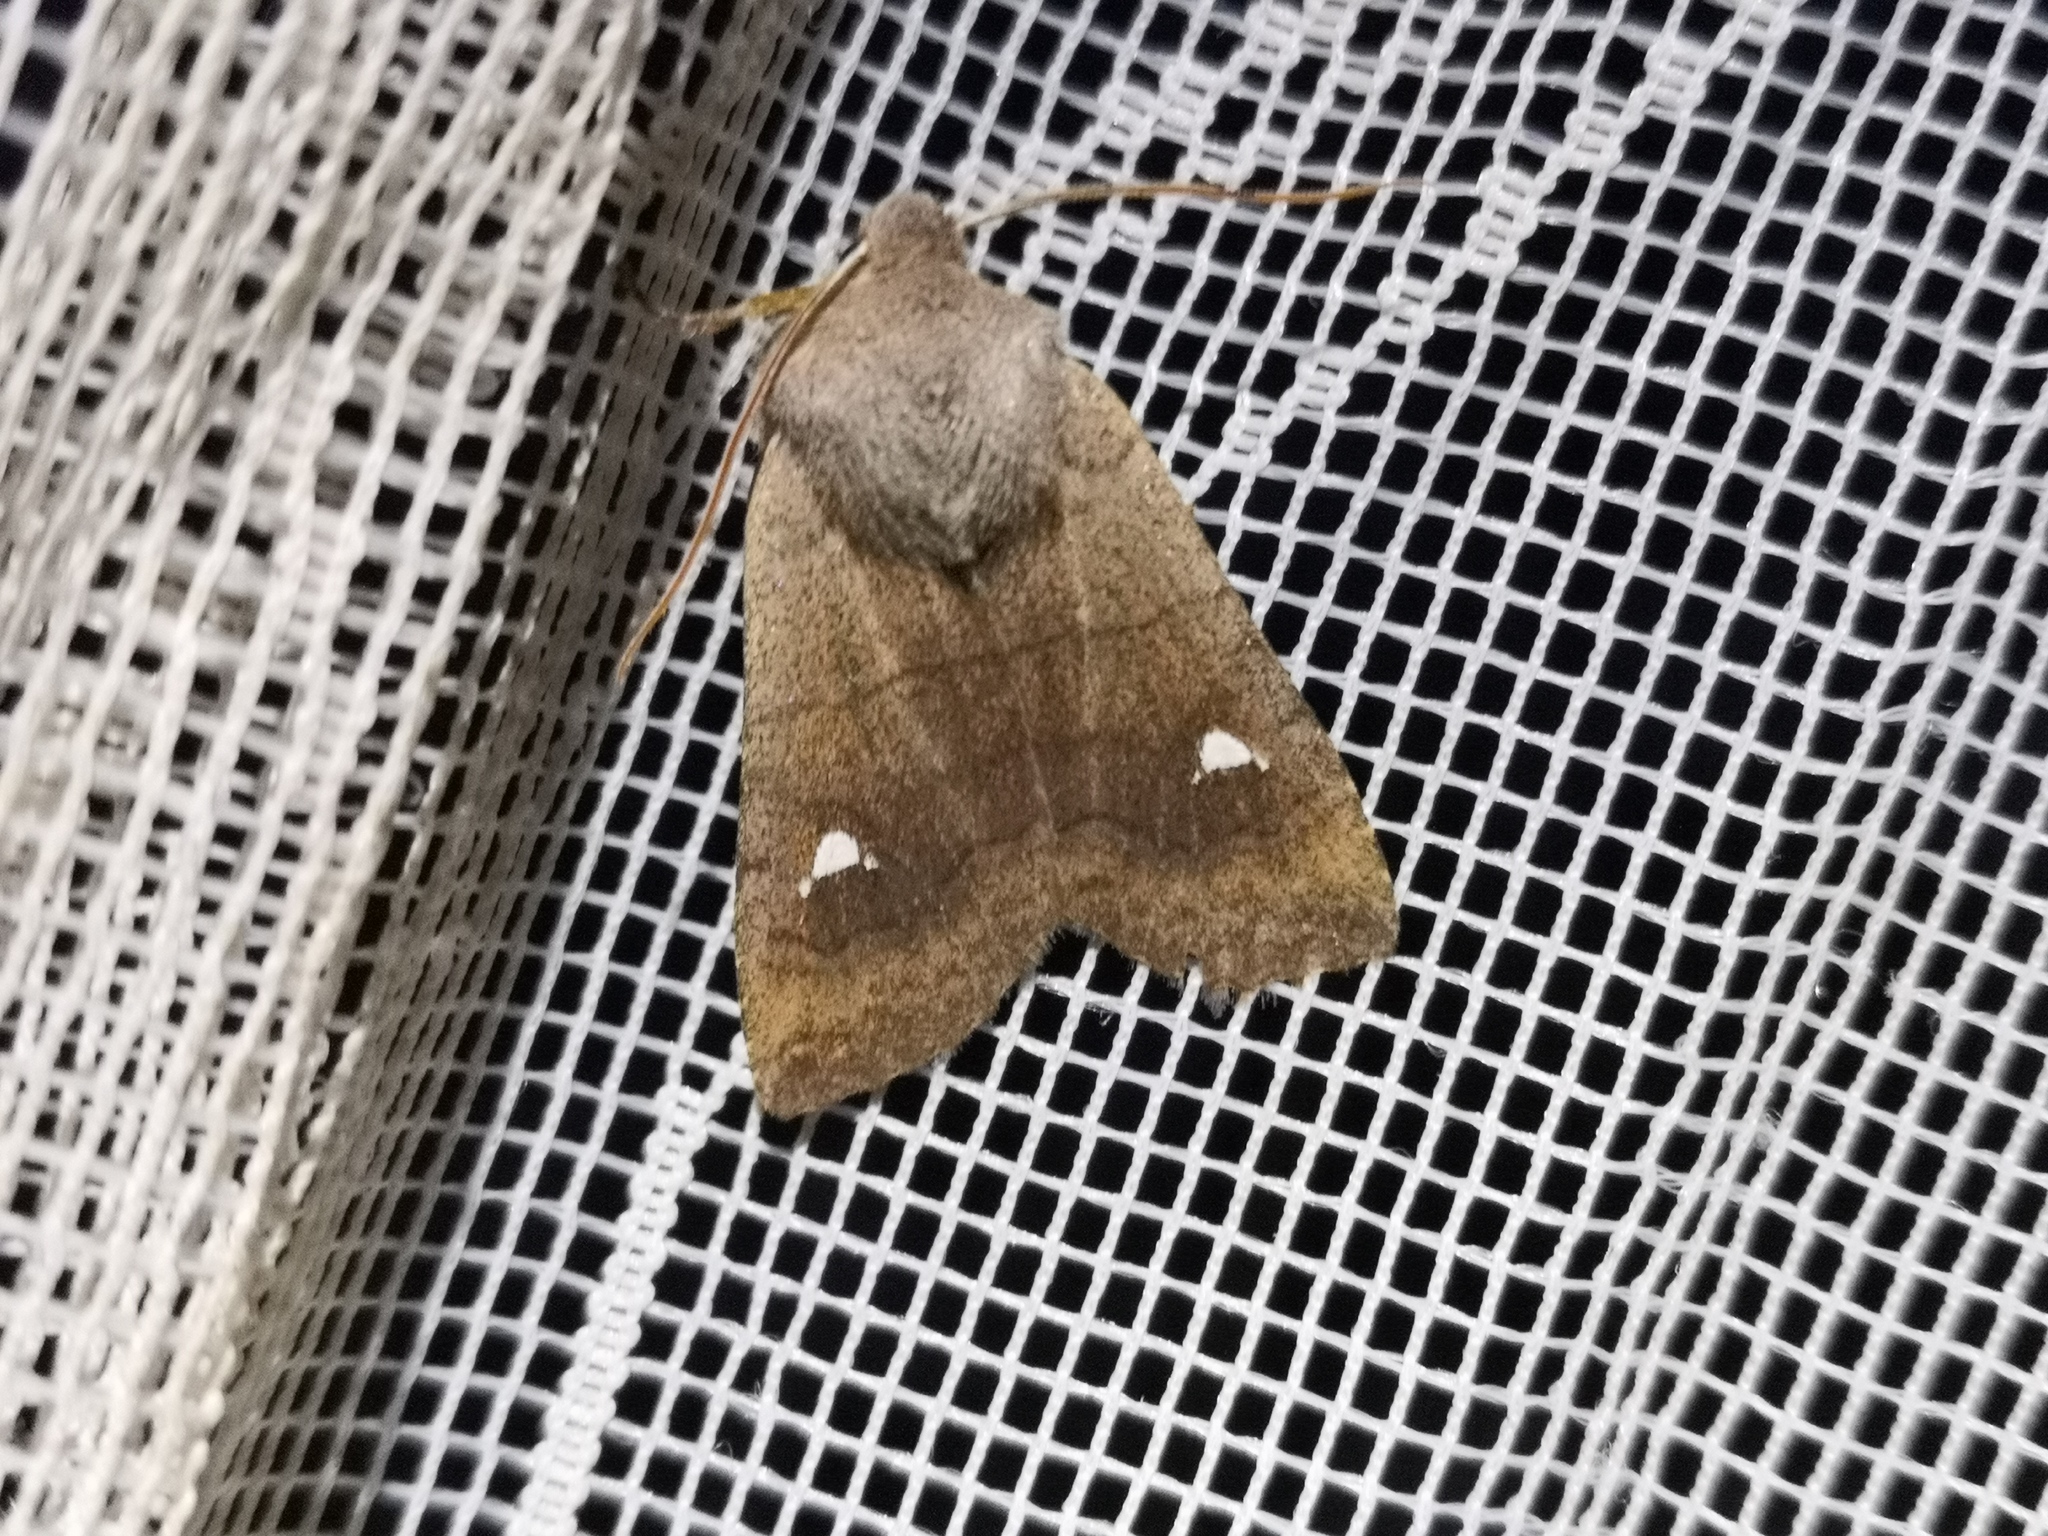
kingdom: Animalia
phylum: Arthropoda
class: Insecta
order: Lepidoptera
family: Noctuidae
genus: Eupsilia
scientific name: Eupsilia transversa
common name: Satellite
